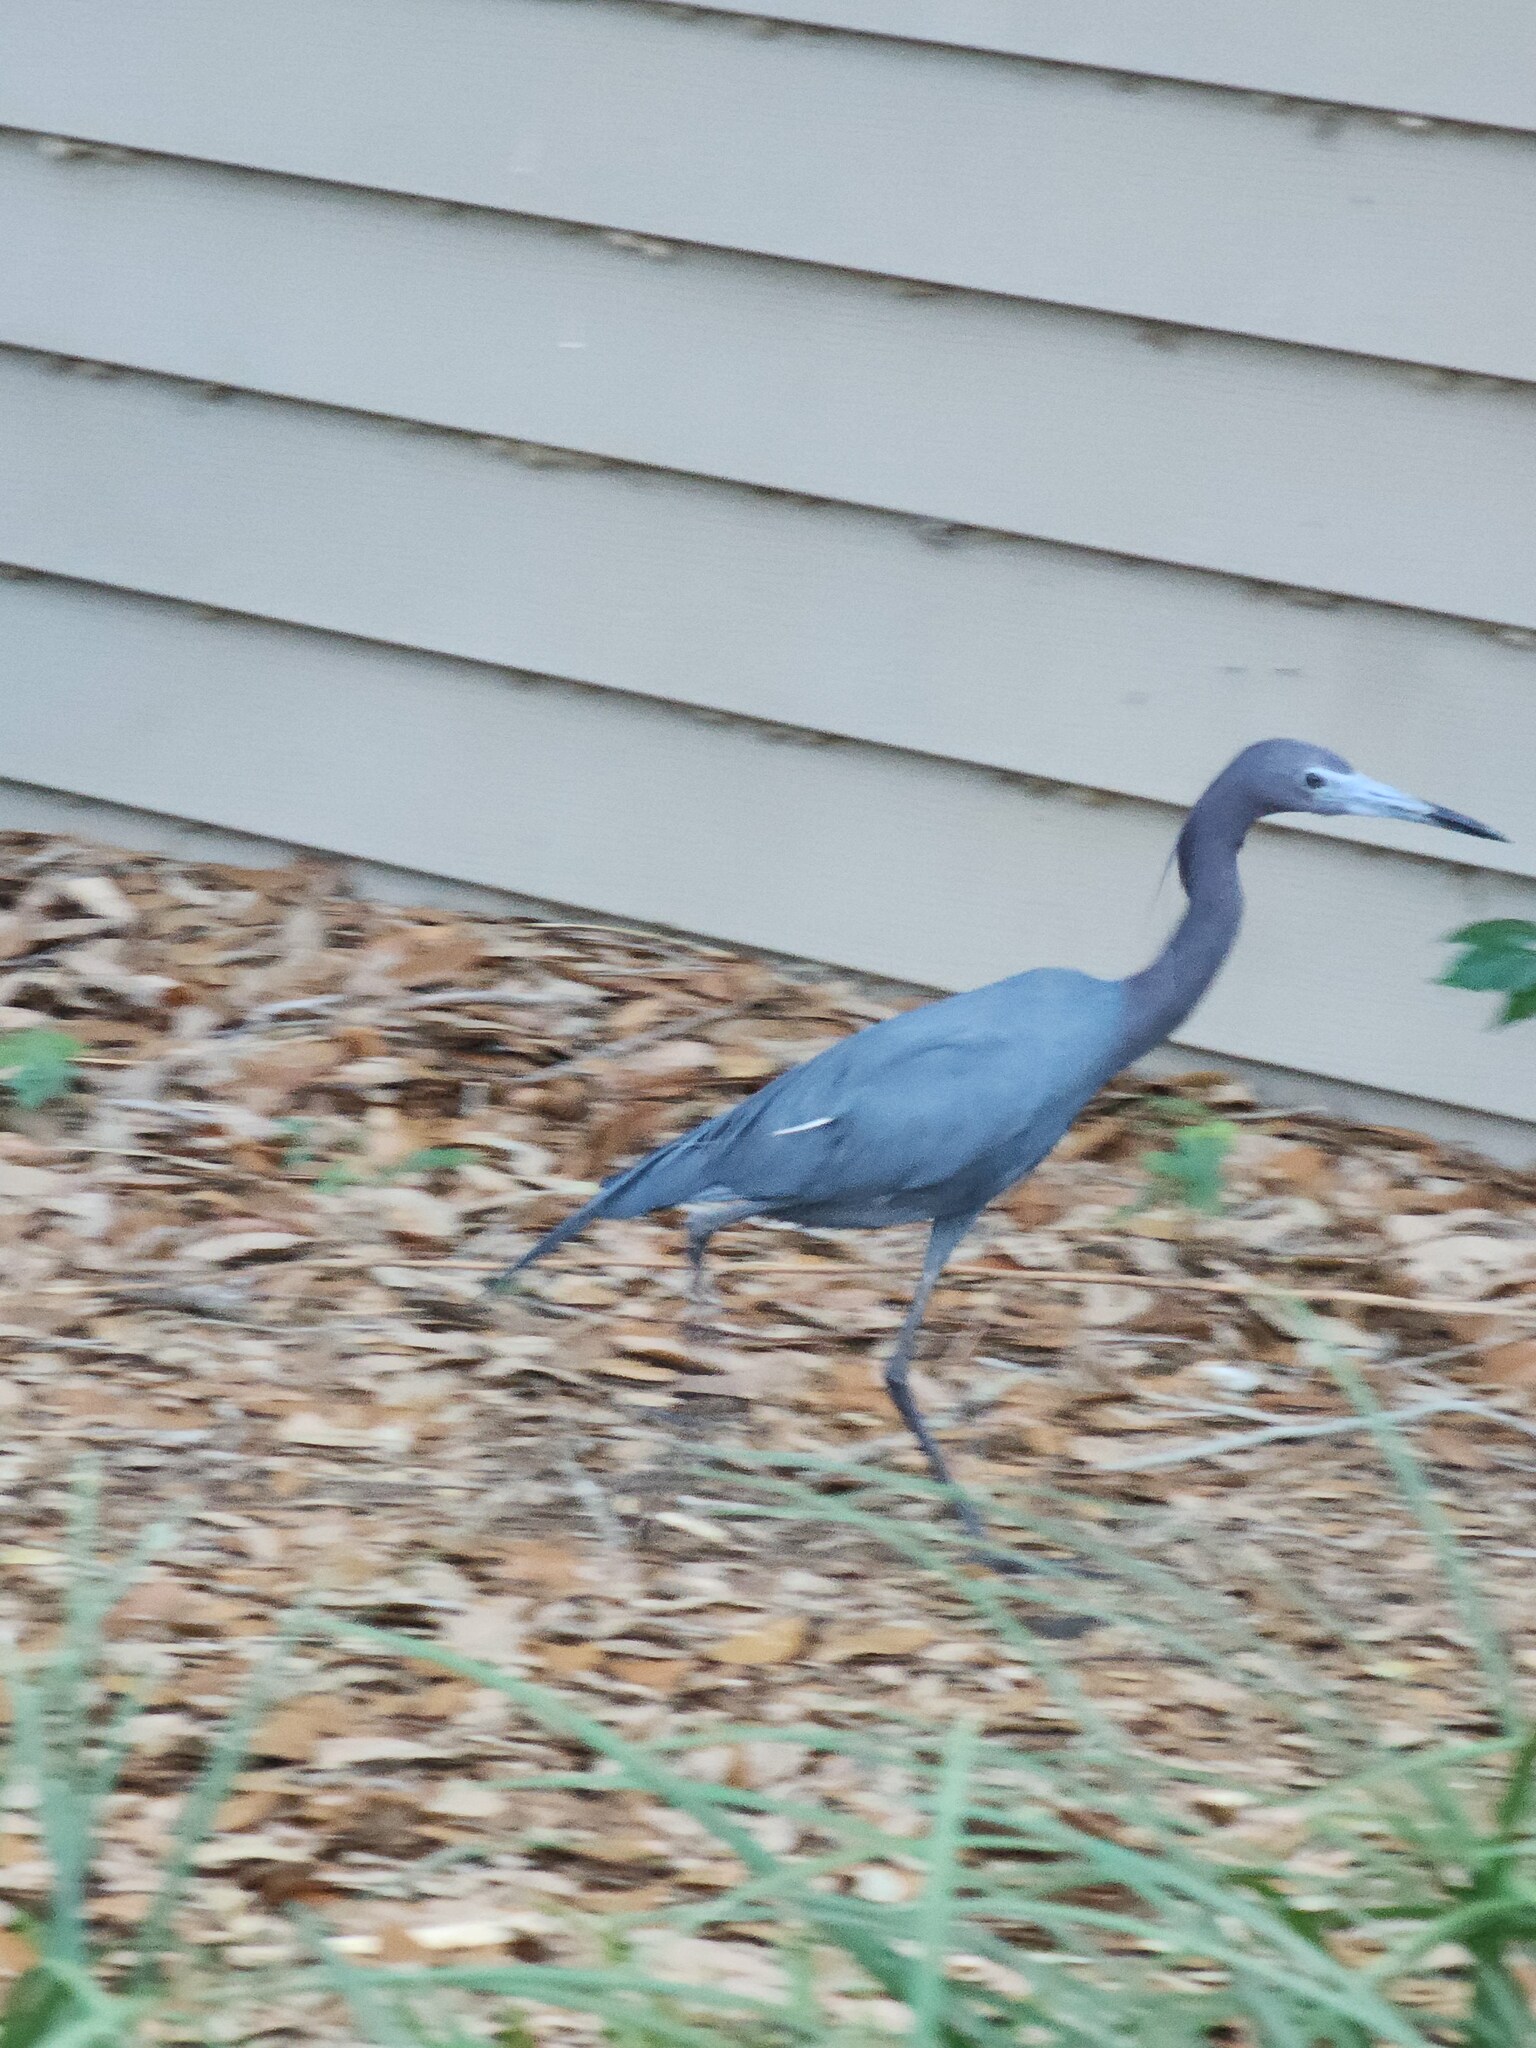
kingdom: Animalia
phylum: Chordata
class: Aves
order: Pelecaniformes
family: Ardeidae
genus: Egretta
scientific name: Egretta caerulea
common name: Little blue heron
